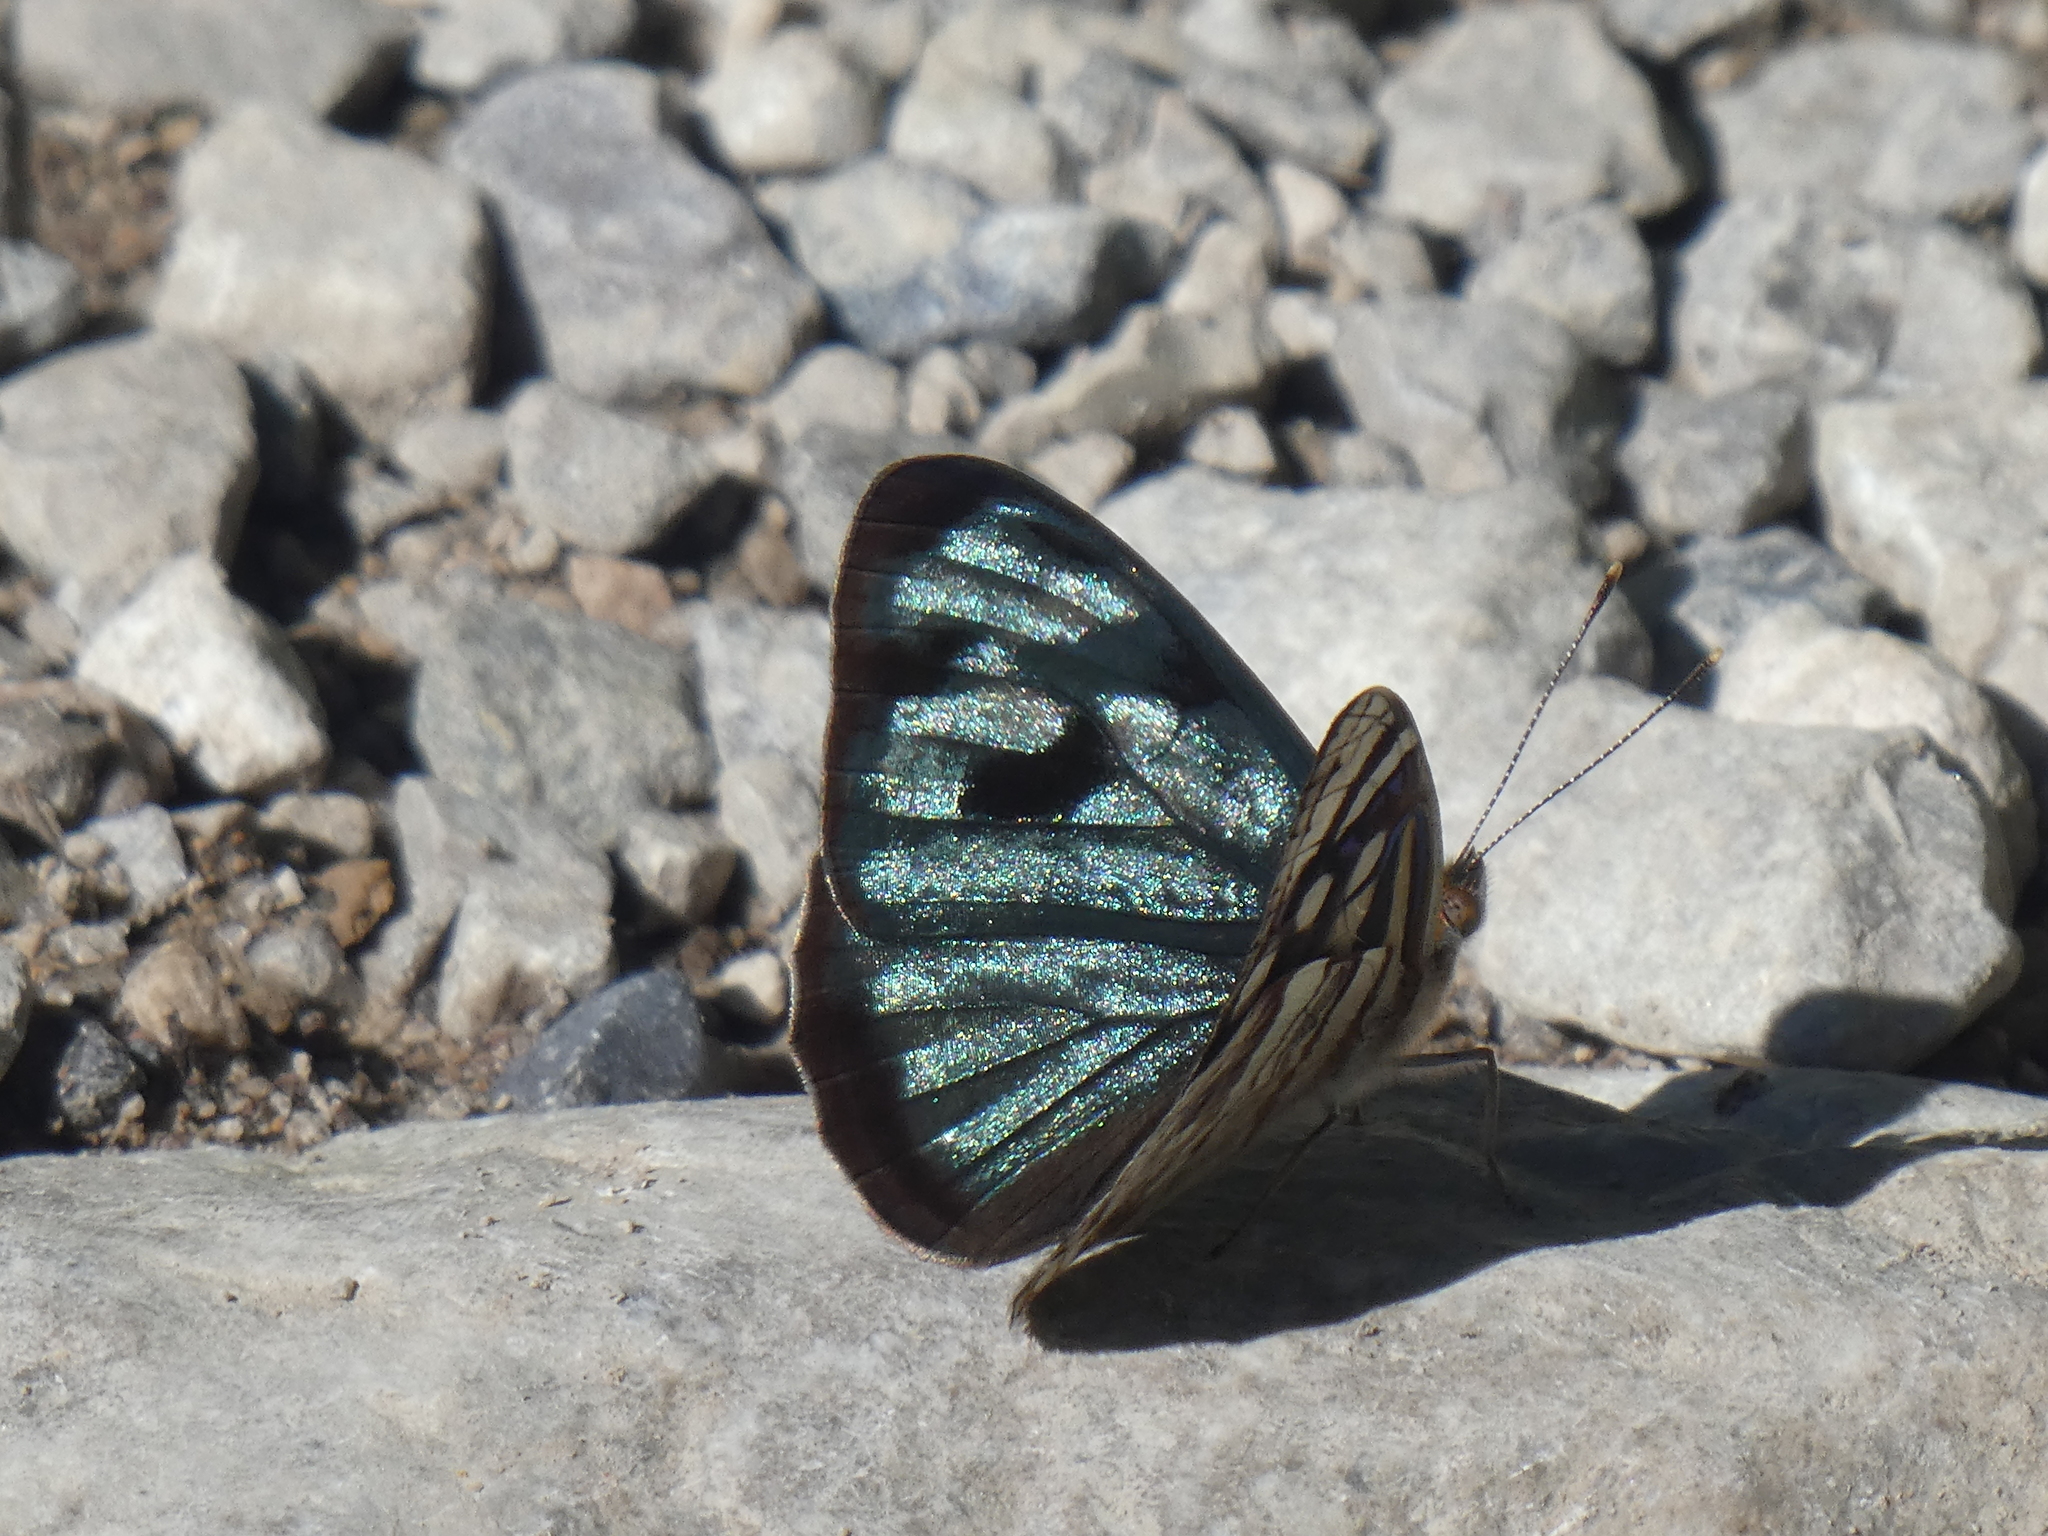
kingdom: Animalia
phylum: Arthropoda
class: Insecta
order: Lepidoptera
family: Nymphalidae
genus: Dynamine
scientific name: Dynamine mylitta
